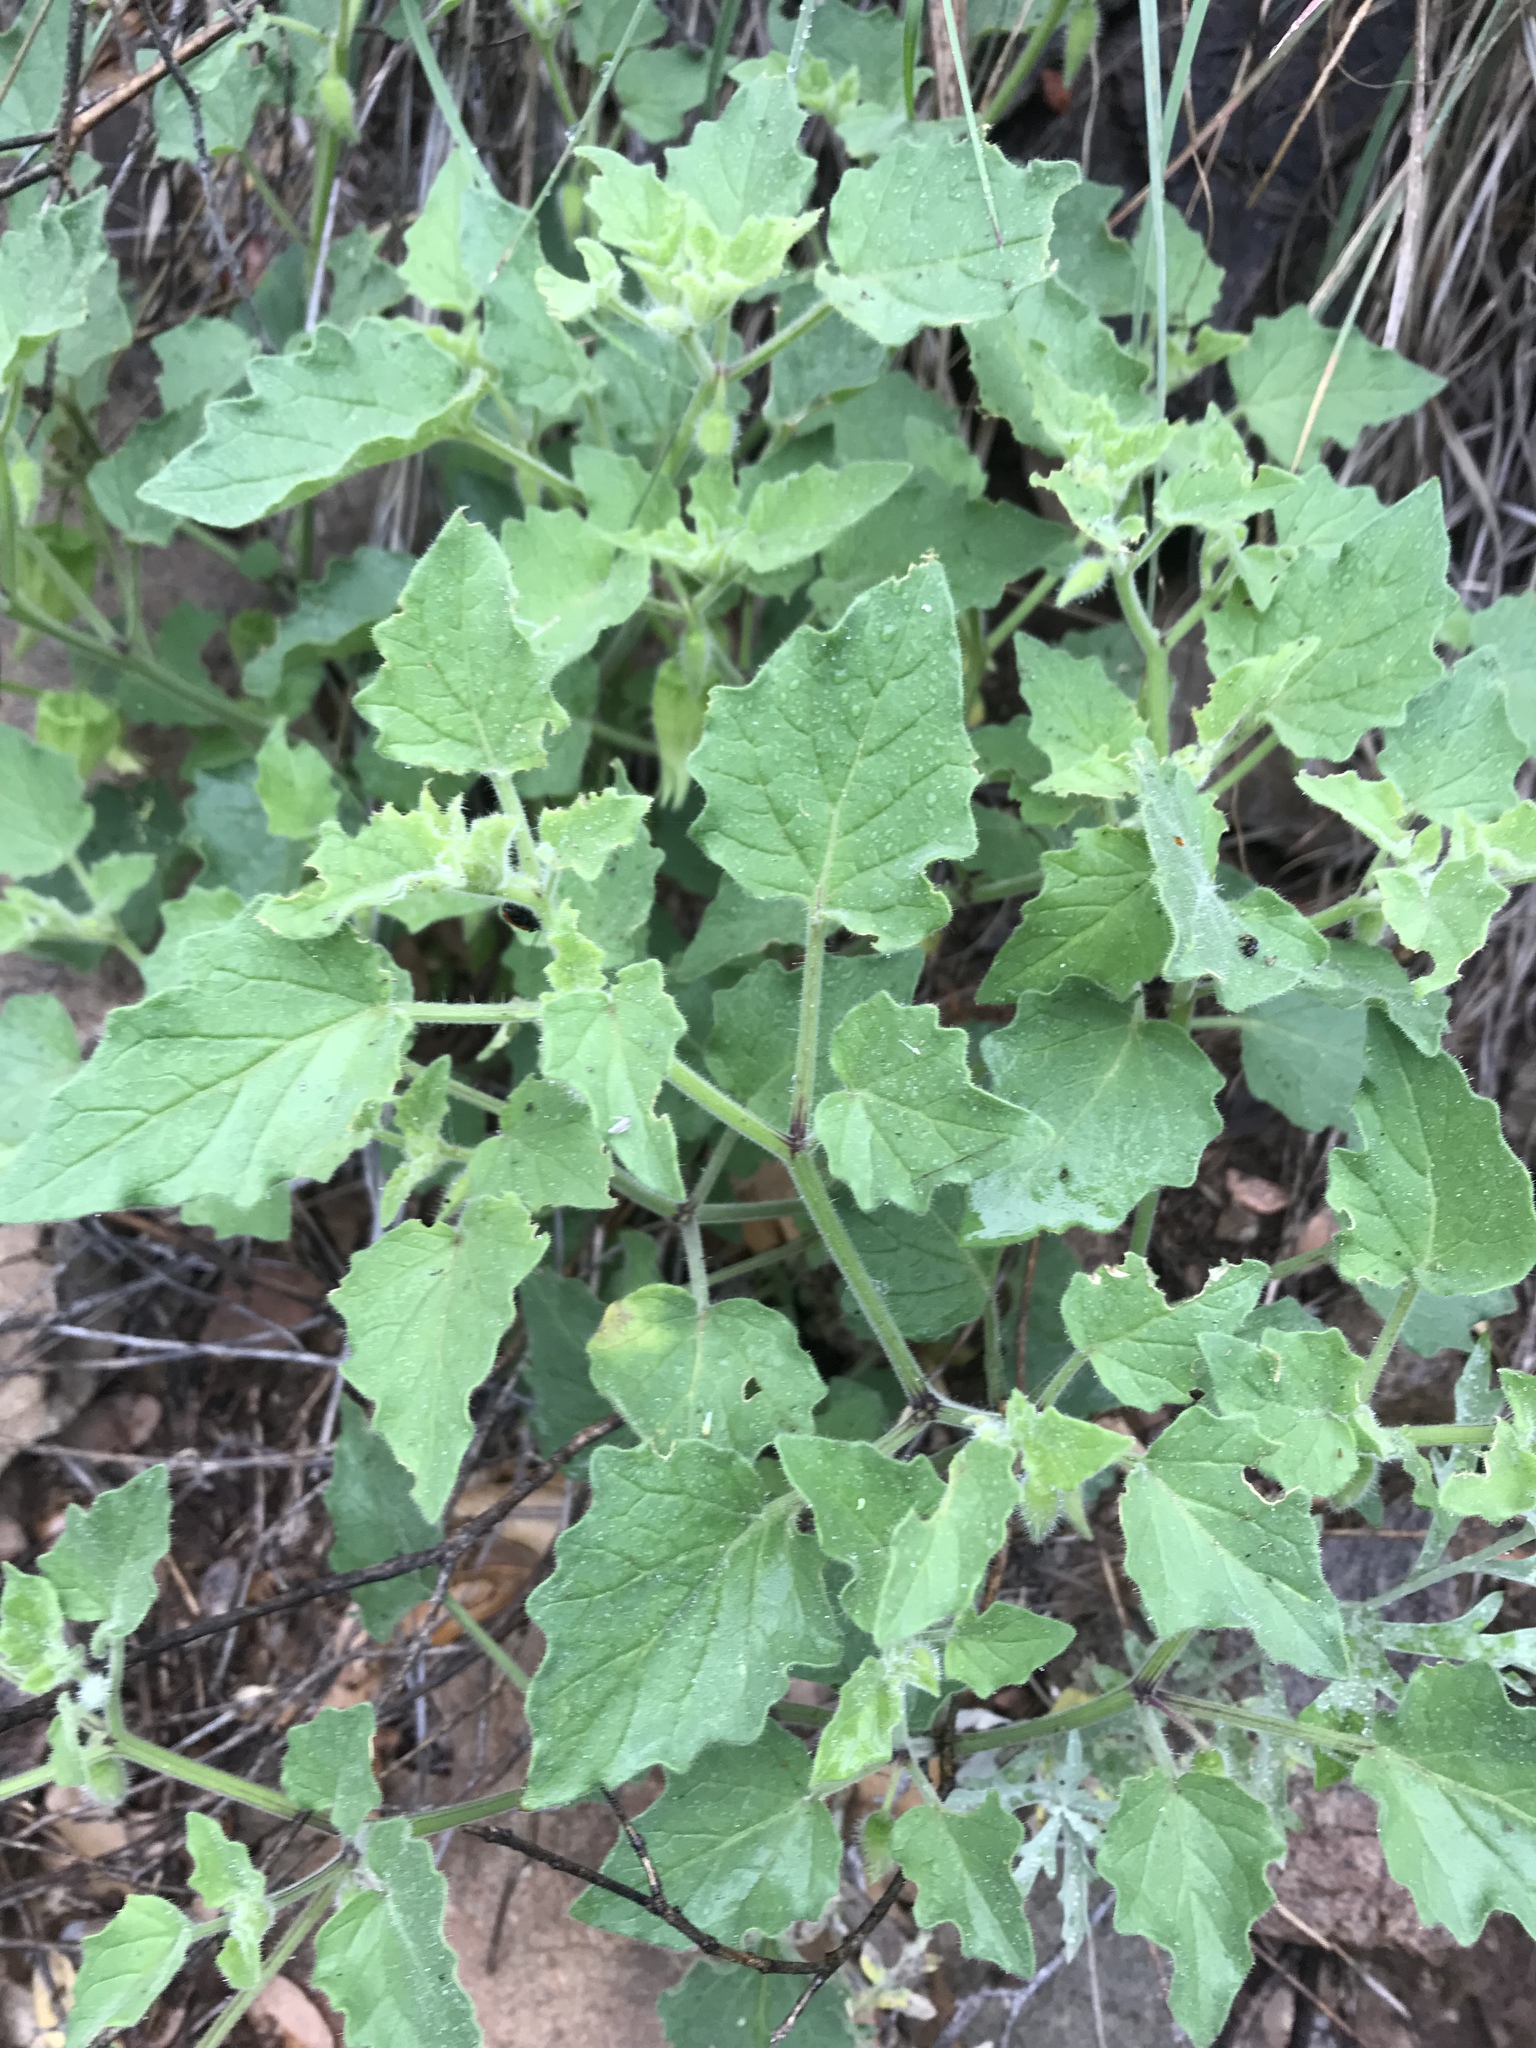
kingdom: Plantae
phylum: Tracheophyta
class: Magnoliopsida
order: Solanales
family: Solanaceae
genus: Physalis
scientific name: Physalis hederifolia
